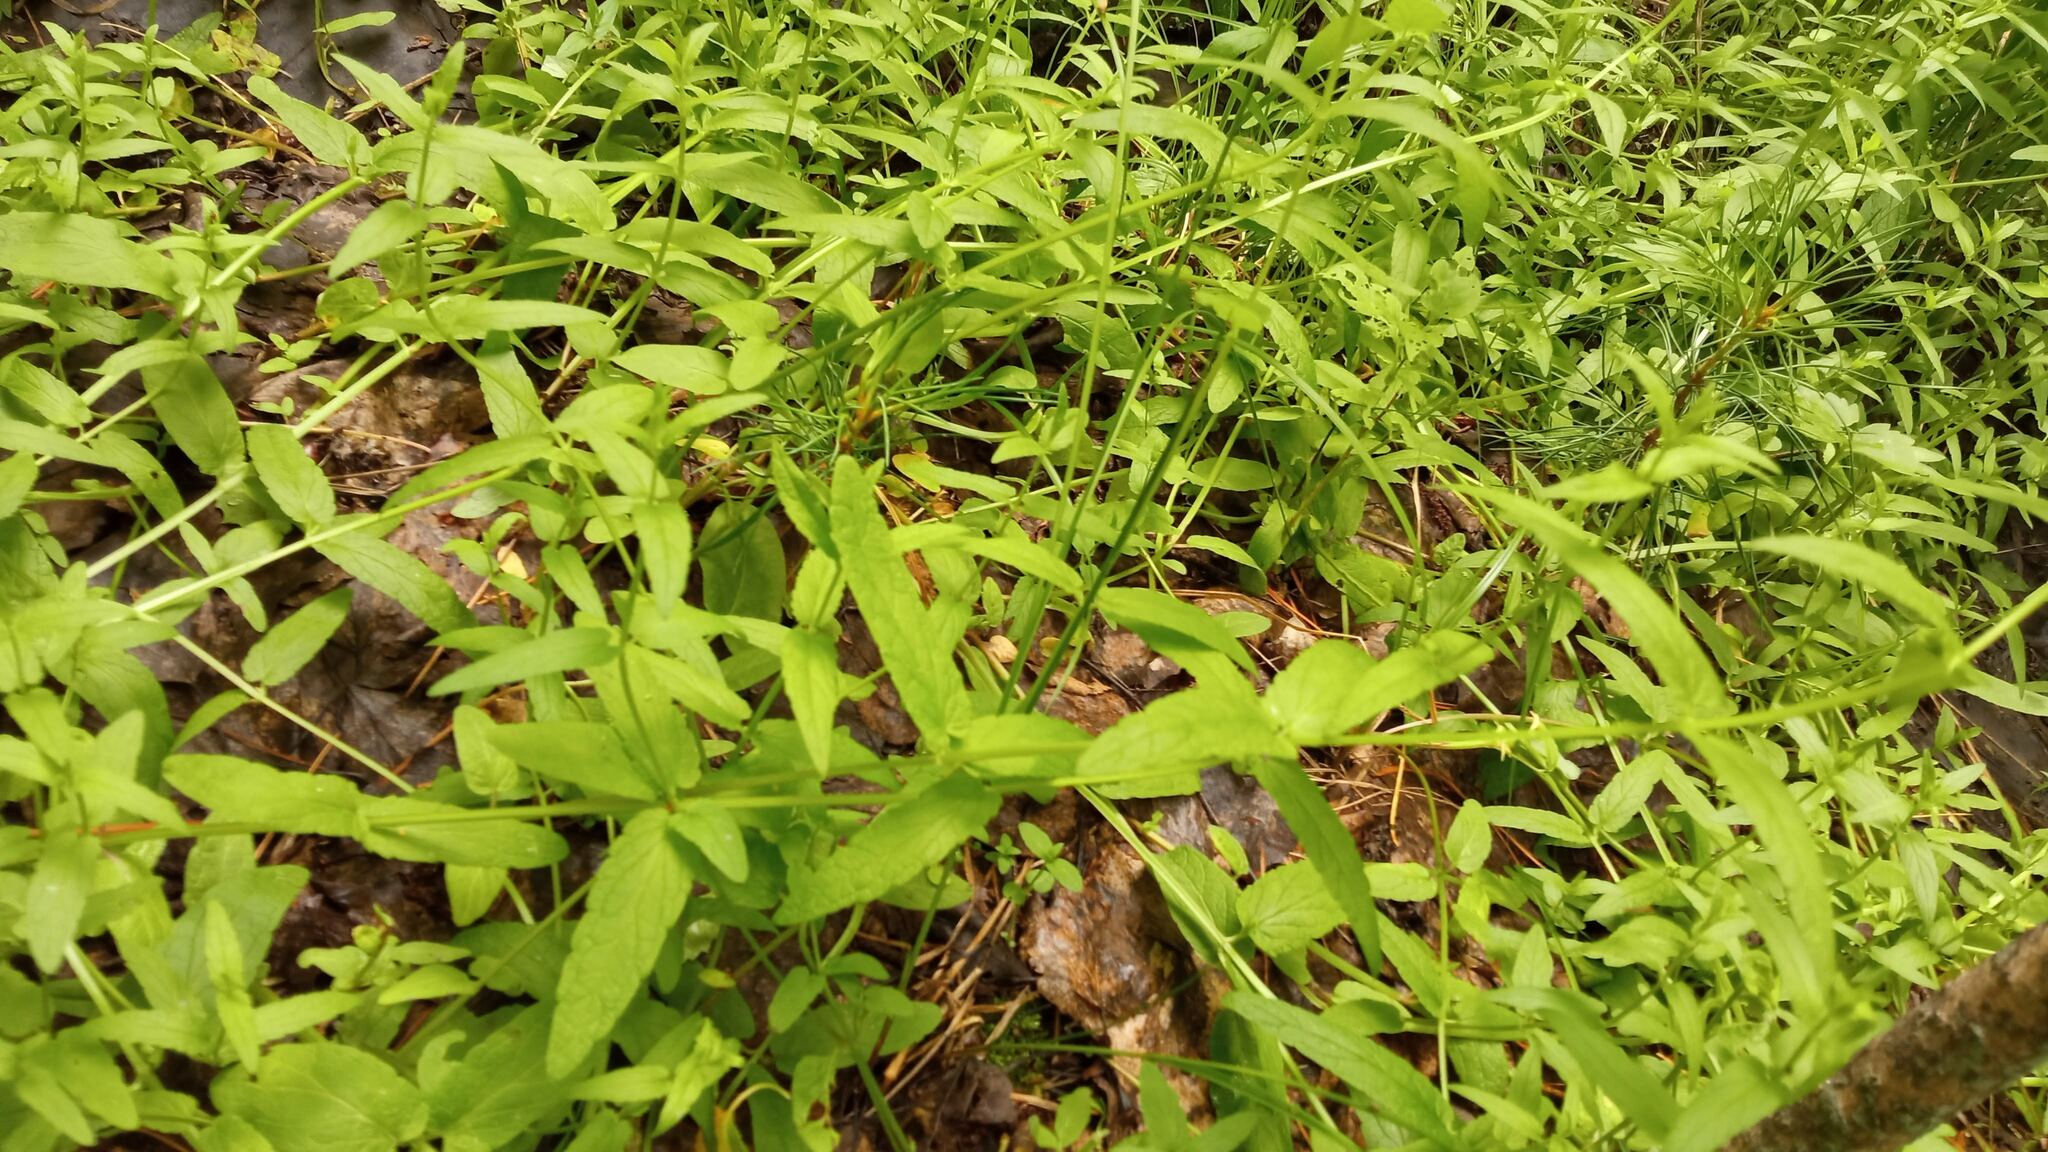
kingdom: Plantae
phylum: Tracheophyta
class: Magnoliopsida
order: Lamiales
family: Lamiaceae
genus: Scutellaria
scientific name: Scutellaria galericulata
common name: Skullcap
